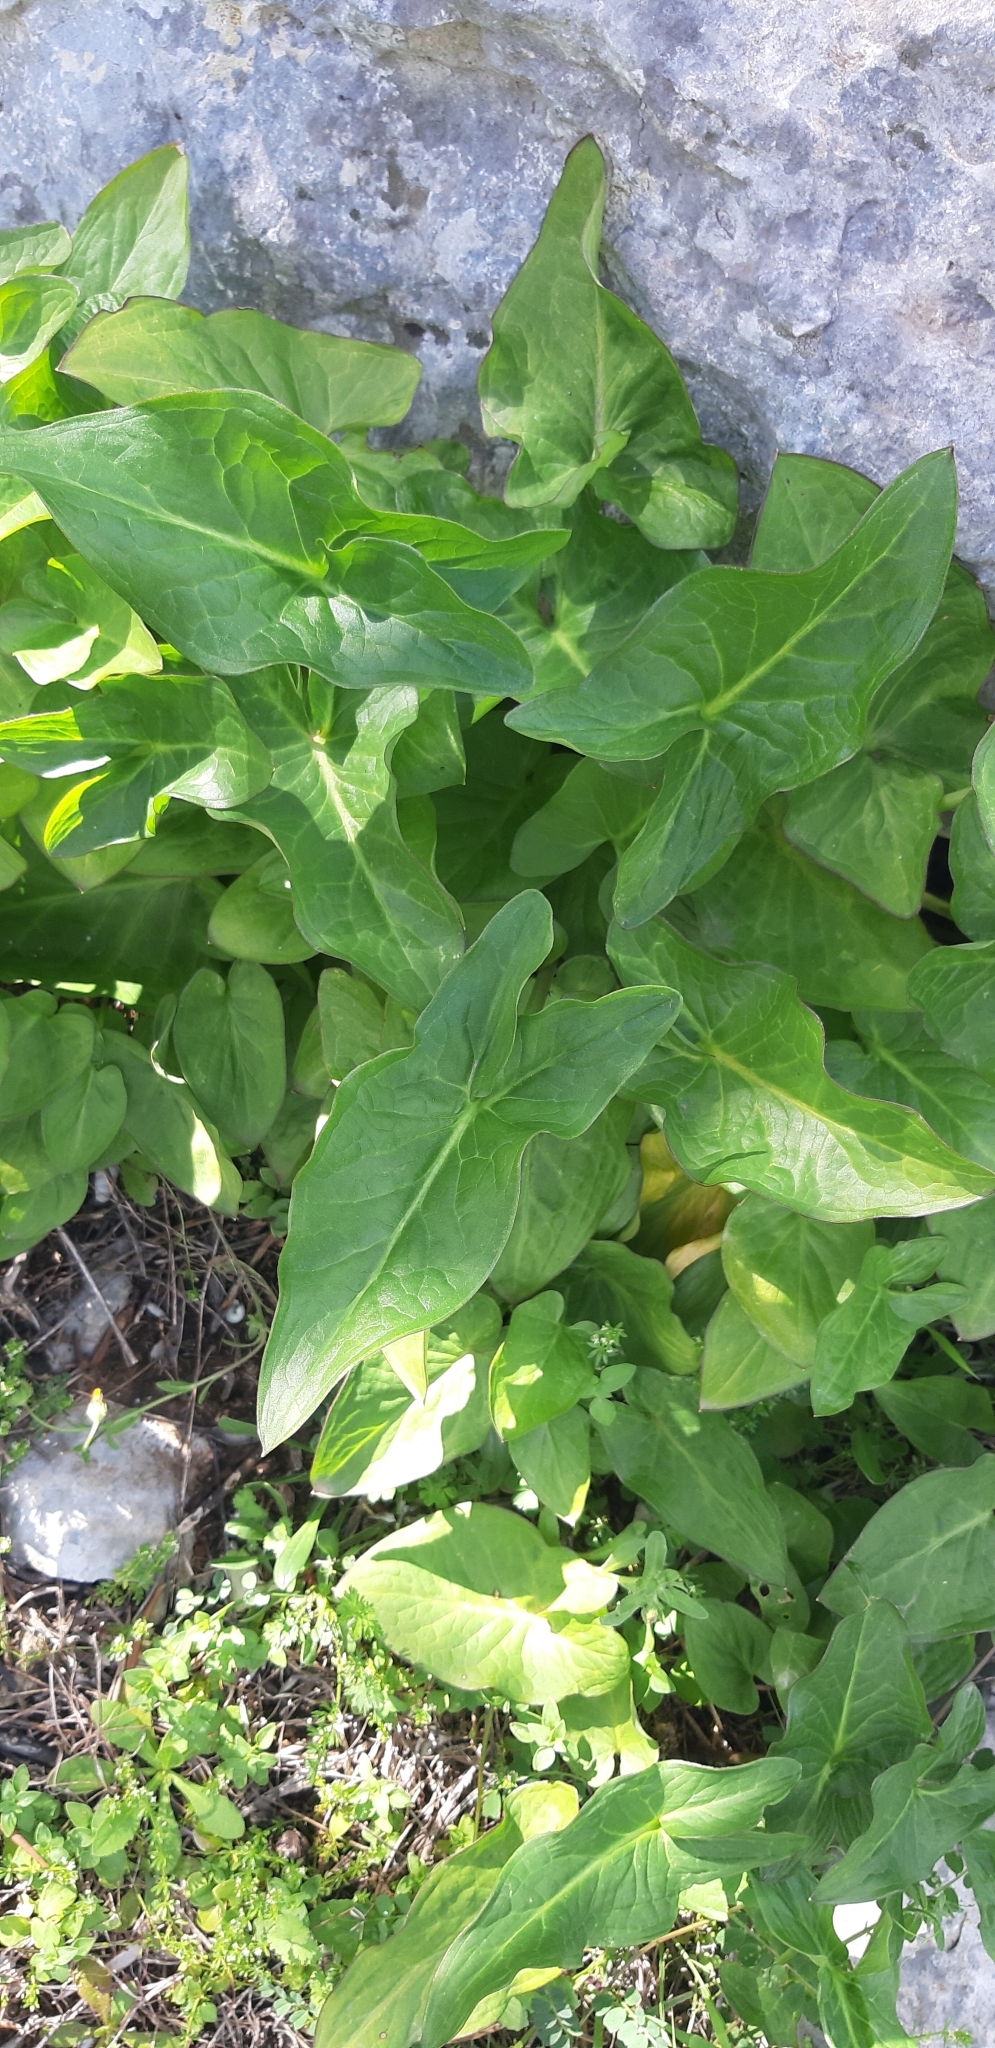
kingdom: Plantae
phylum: Tracheophyta
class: Liliopsida
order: Alismatales
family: Araceae
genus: Arum
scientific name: Arum italicum
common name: Italian lords-and-ladies
